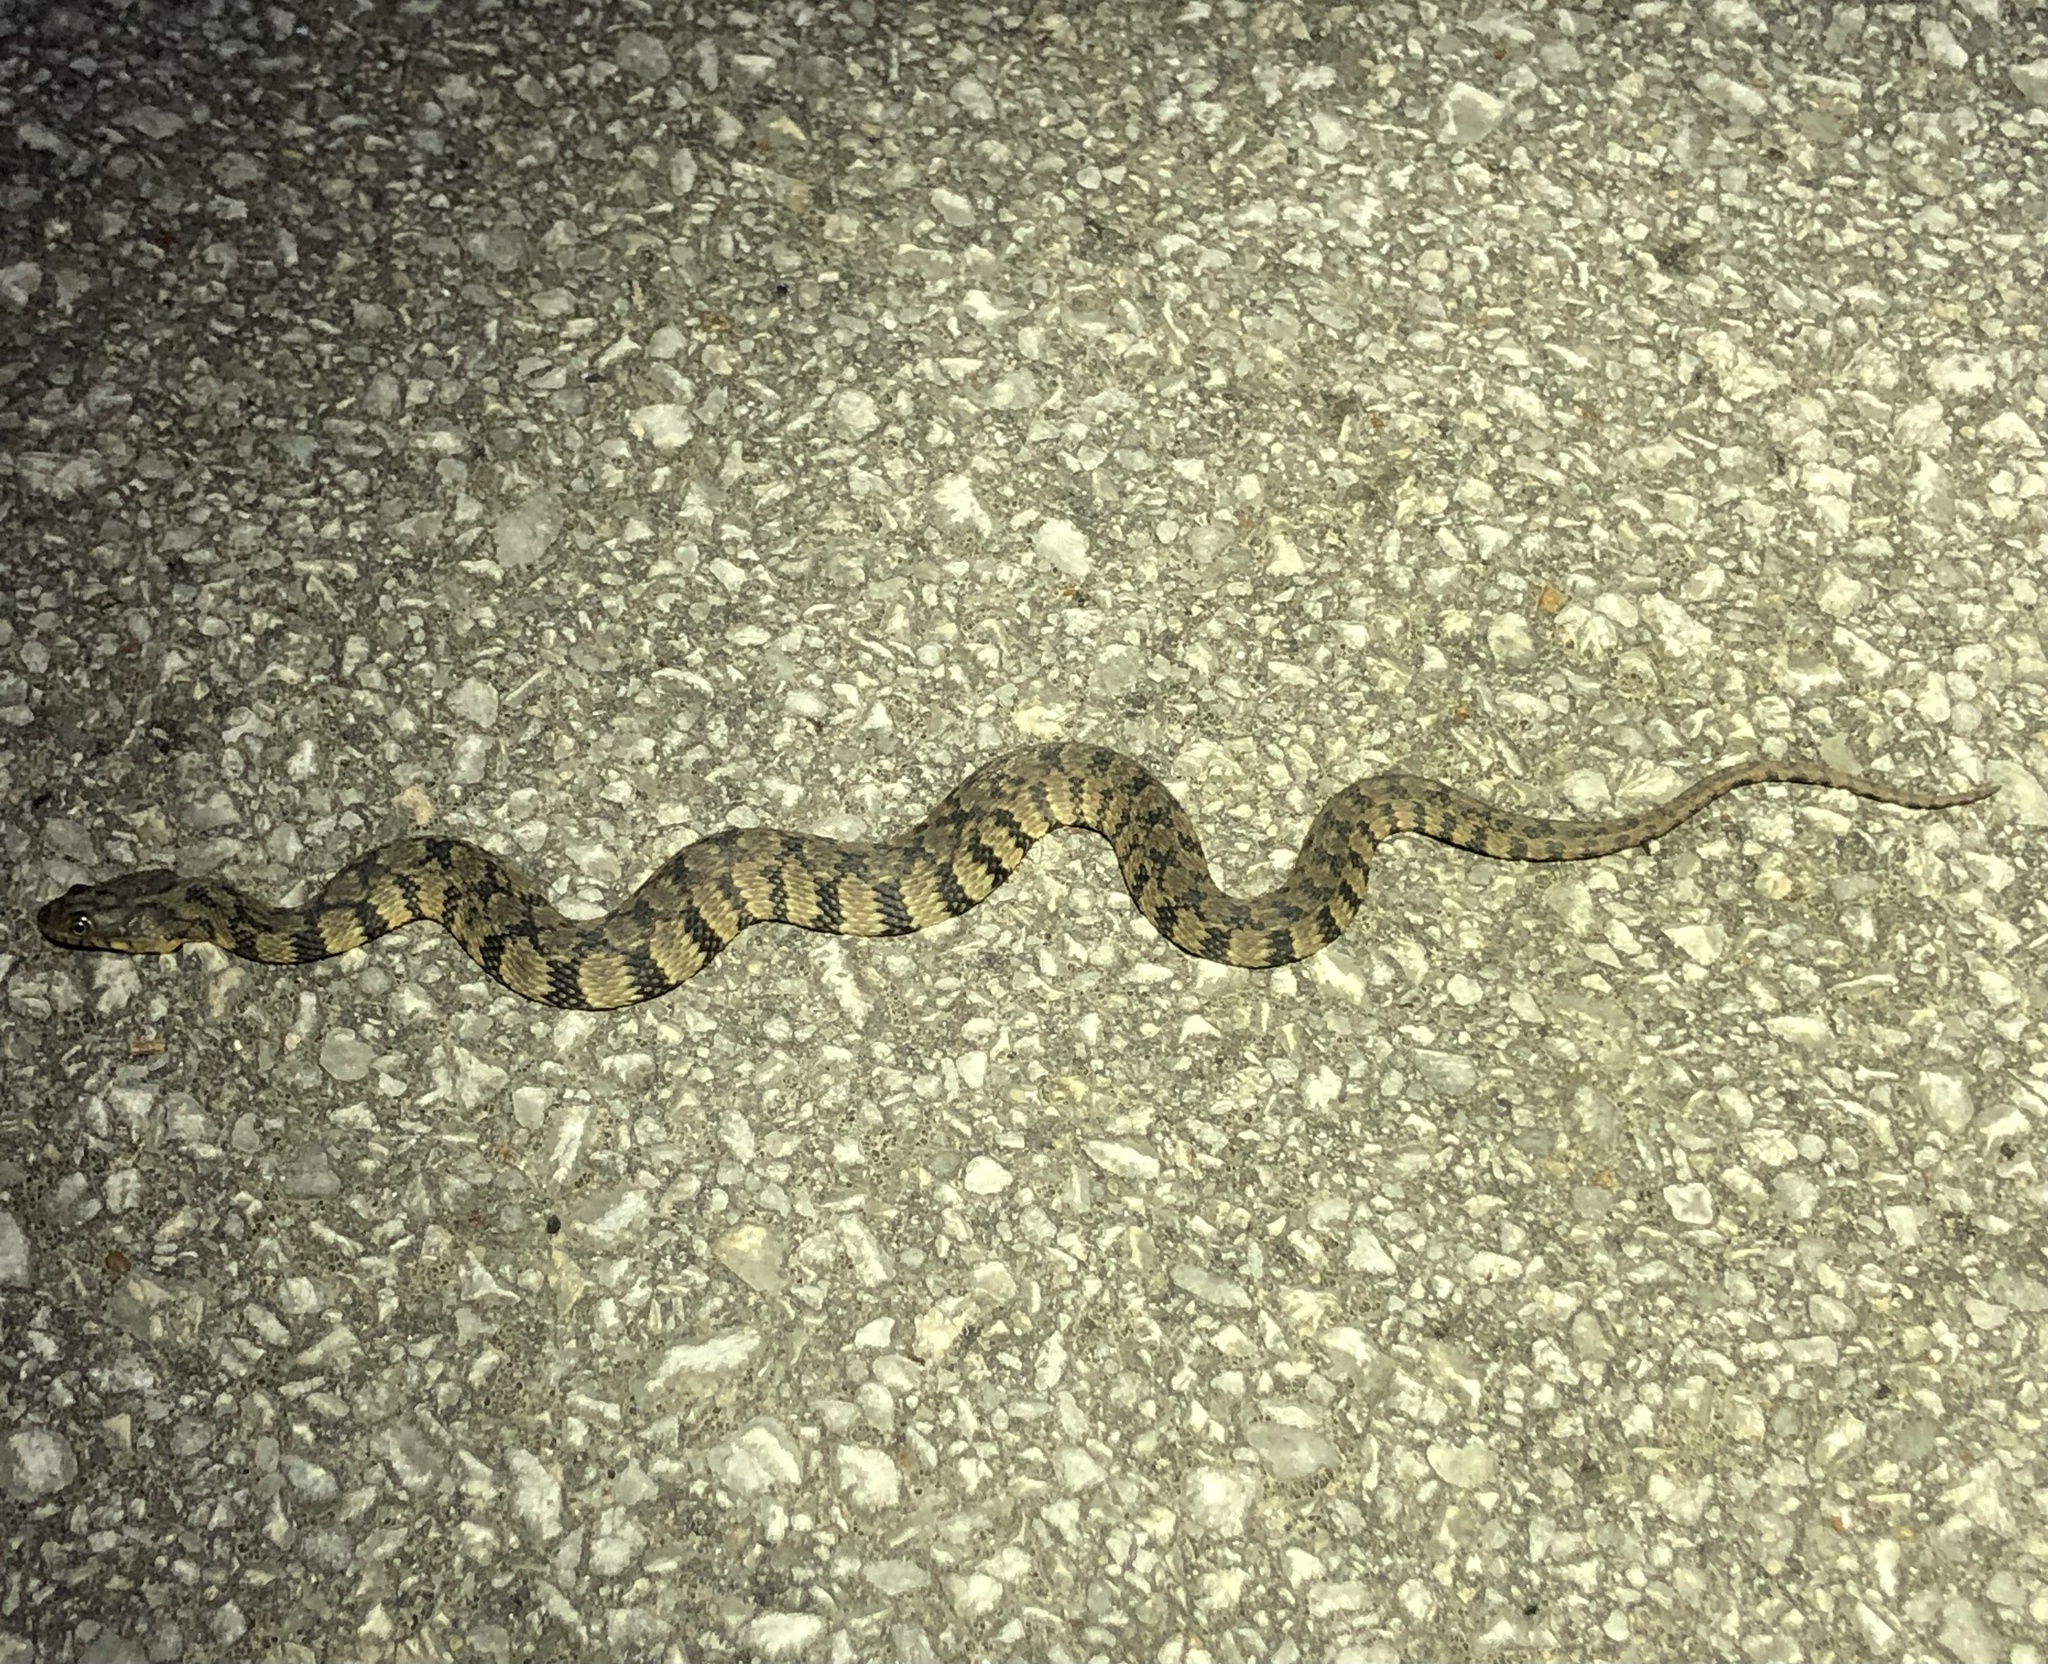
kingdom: Animalia
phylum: Chordata
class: Squamata
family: Colubridae
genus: Nerodia
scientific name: Nerodia rhombifer
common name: Diamondback water snake
